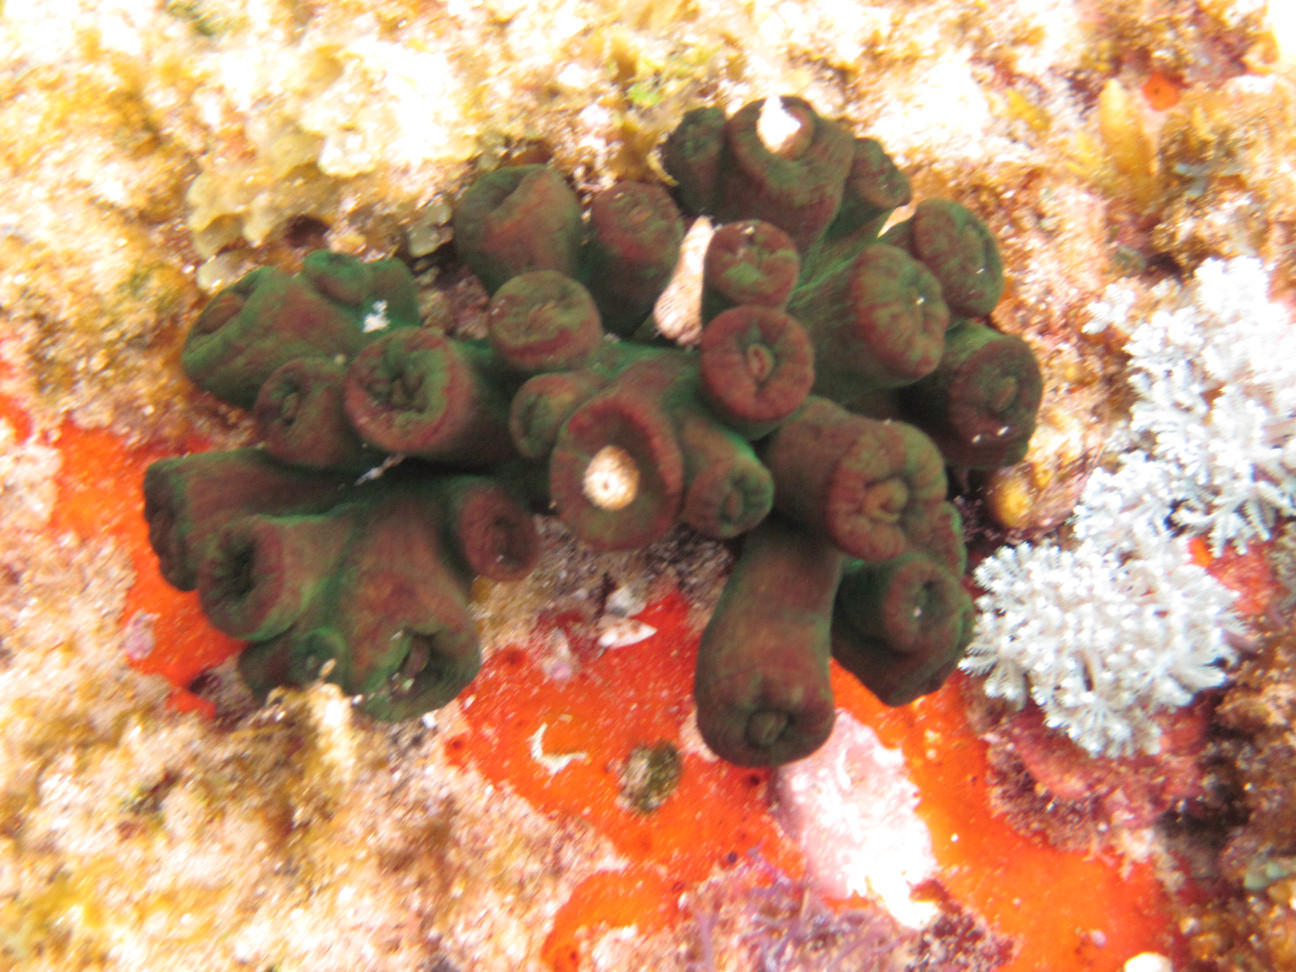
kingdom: Animalia
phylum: Cnidaria
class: Anthozoa
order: Scleractinia
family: Dendrophylliidae
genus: Tubastraea
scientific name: Tubastraea diaphana
